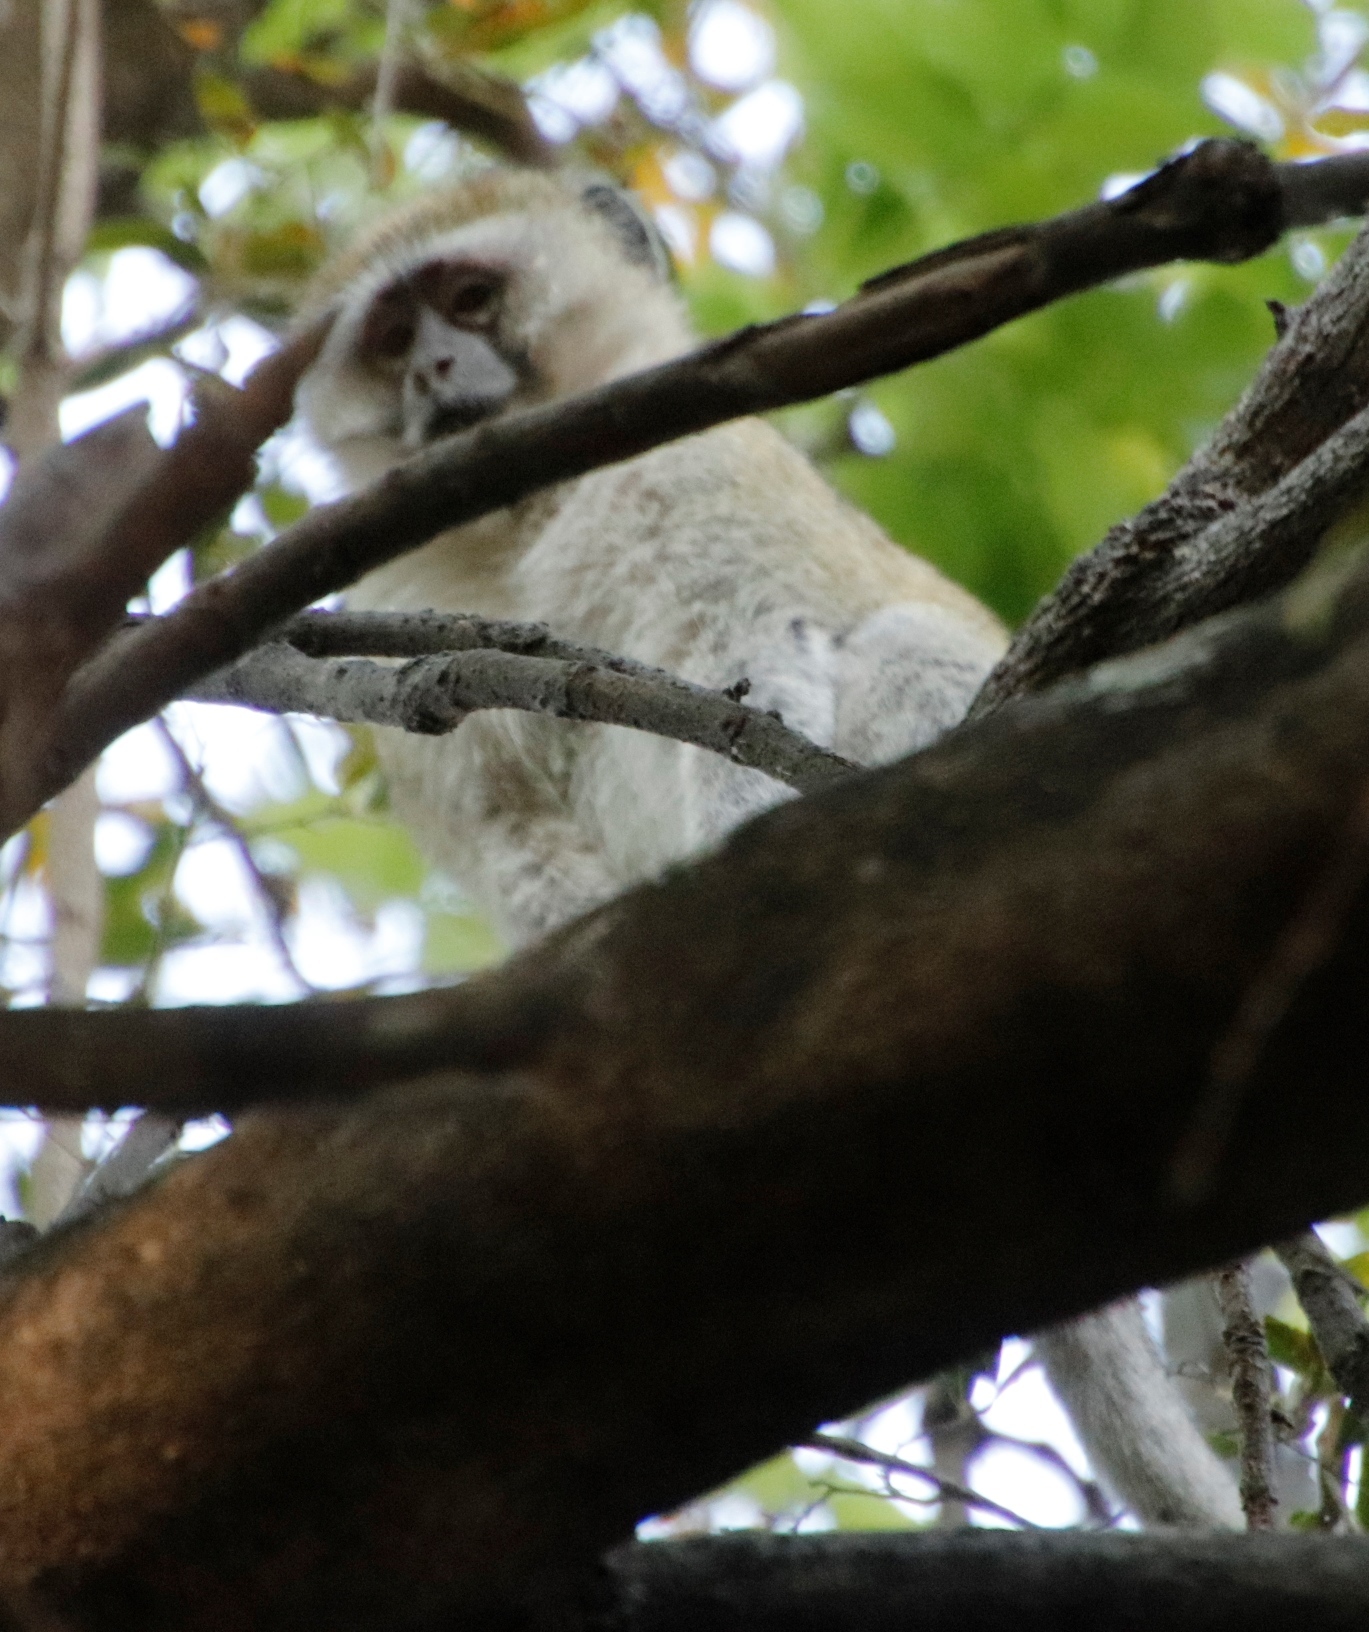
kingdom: Animalia
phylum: Chordata
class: Mammalia
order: Primates
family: Cercopithecidae
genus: Chlorocebus
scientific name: Chlorocebus cynosuros
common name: Malbrouck
